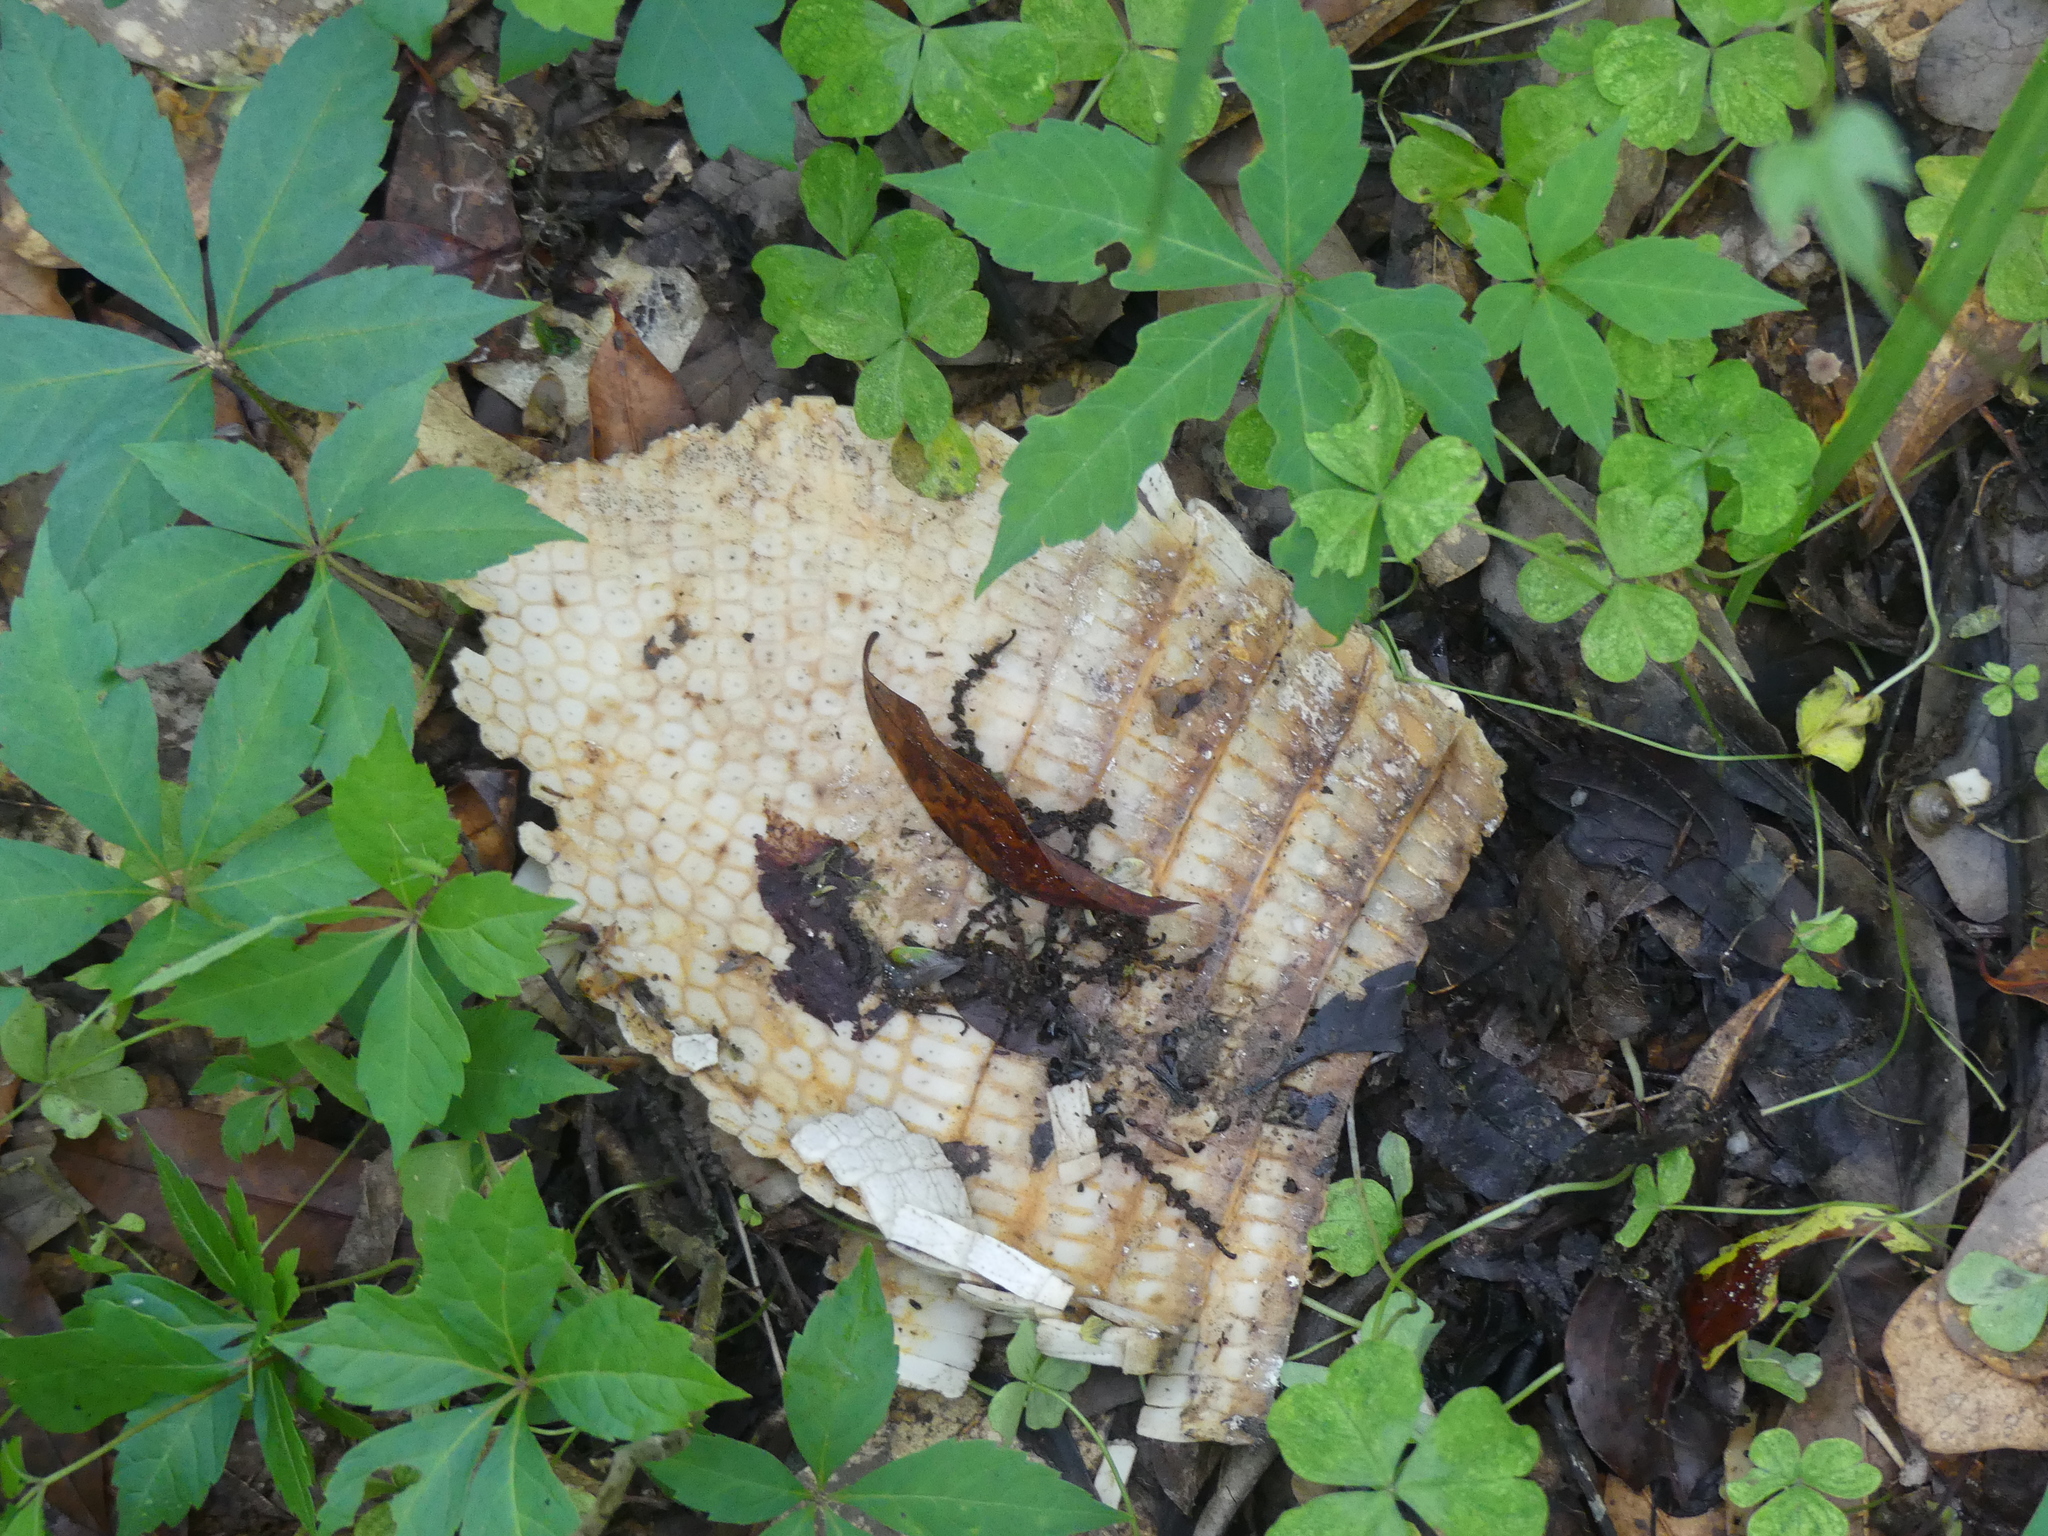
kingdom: Animalia
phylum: Chordata
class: Mammalia
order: Cingulata
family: Dasypodidae
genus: Dasypus
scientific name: Dasypus novemcinctus
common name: Nine-banded armadillo
